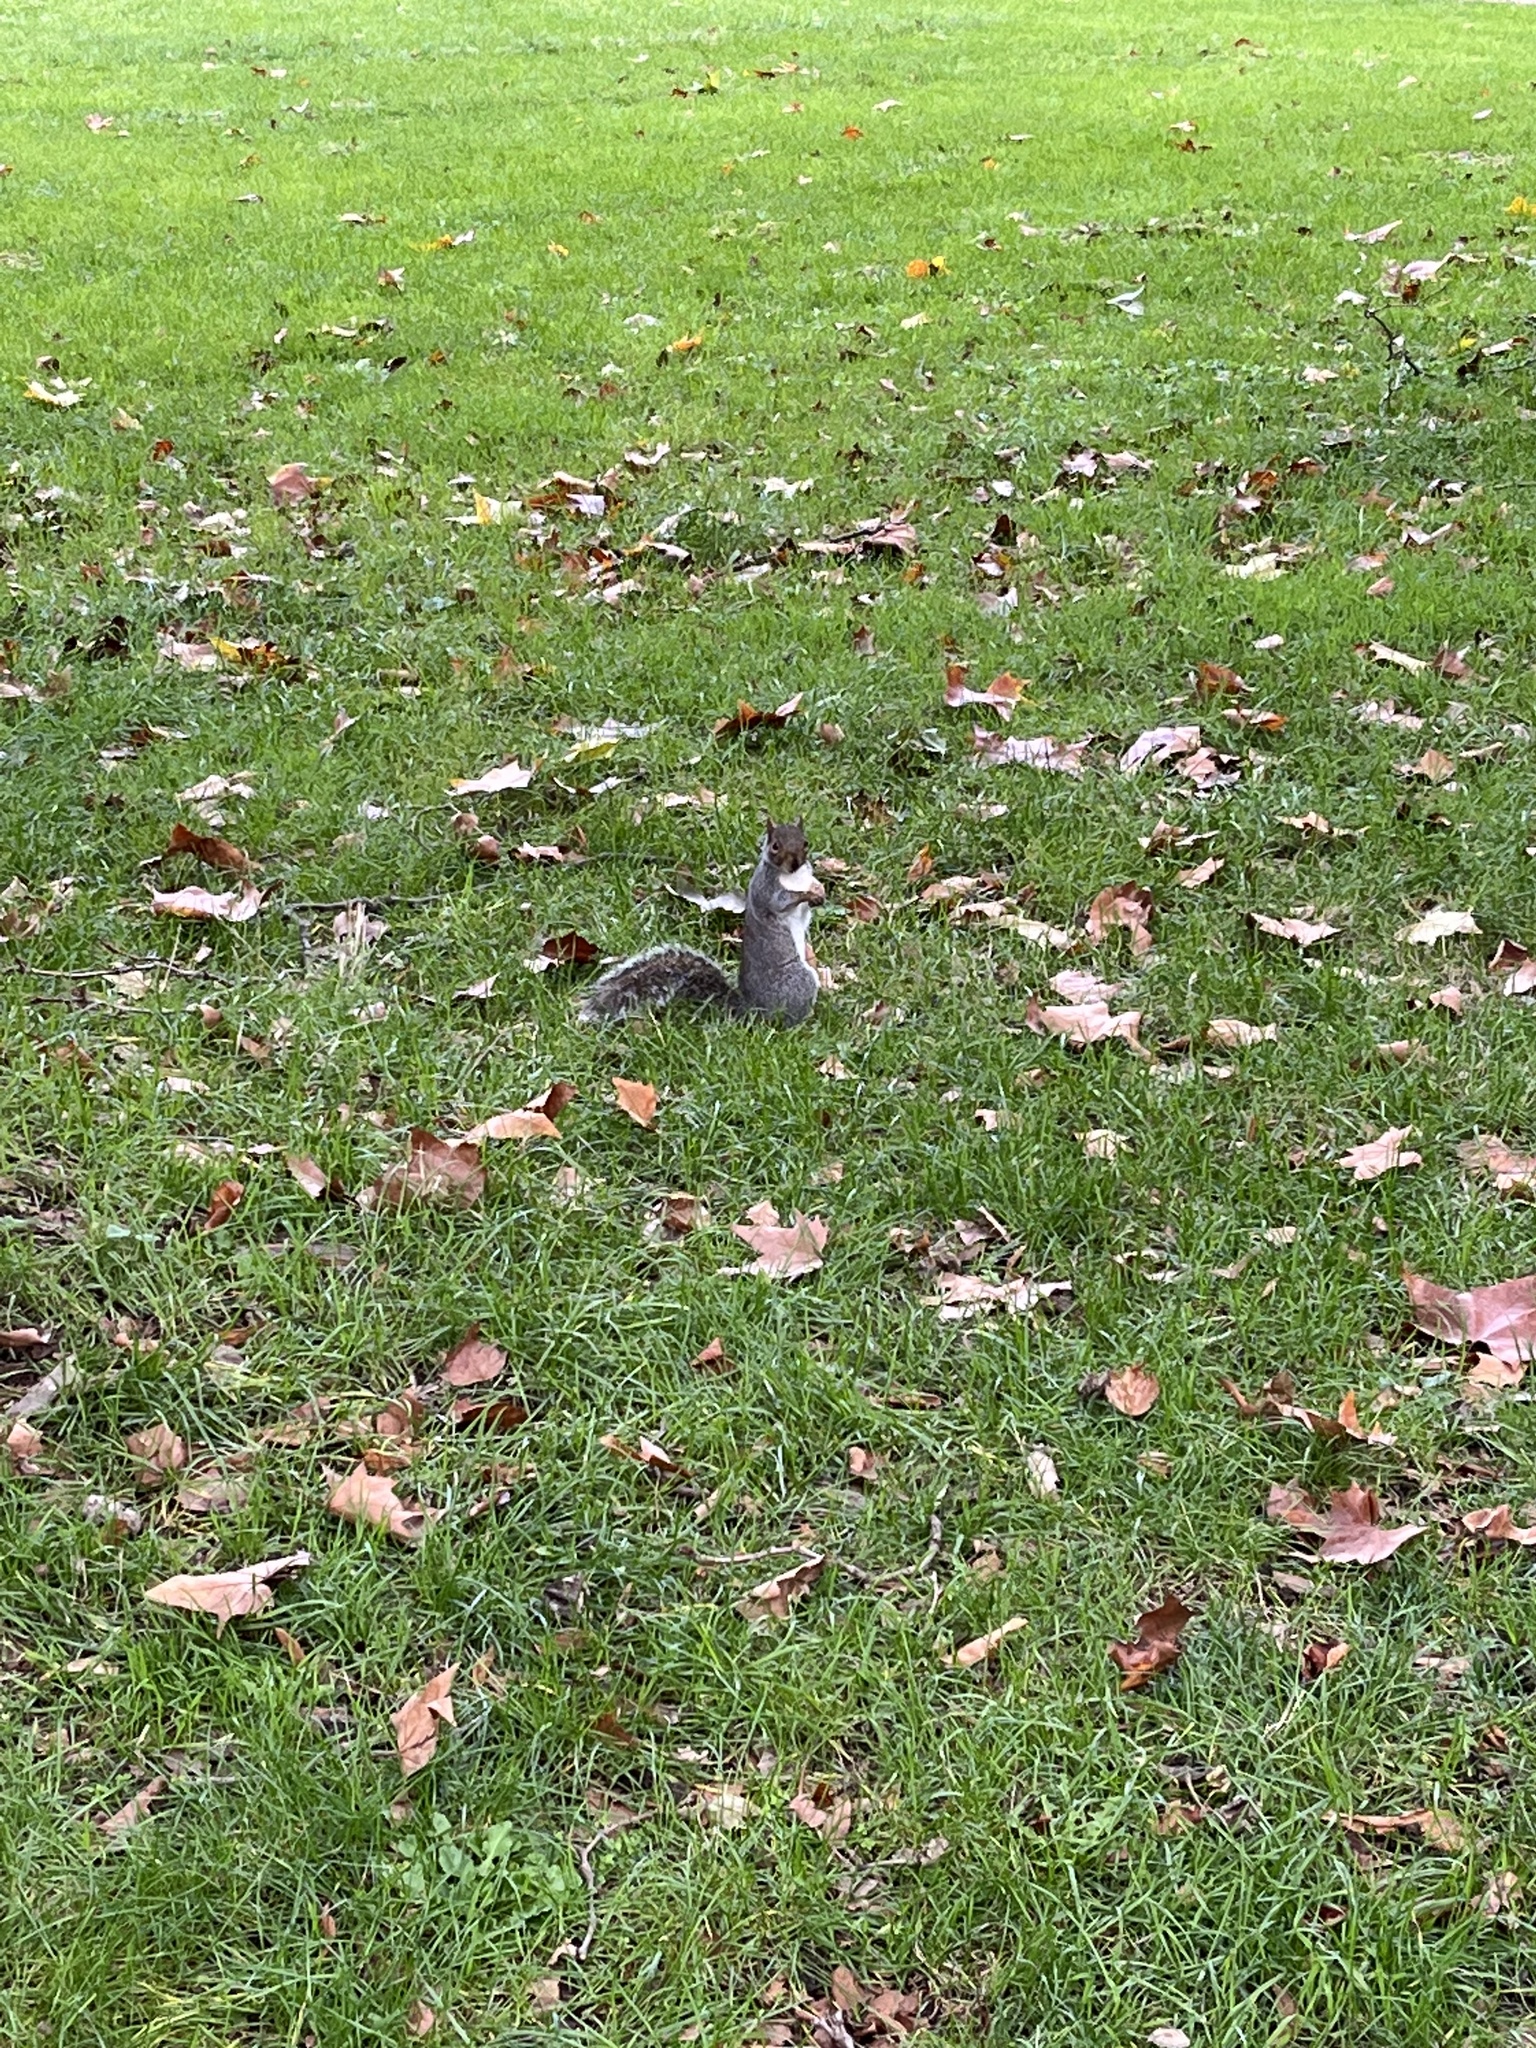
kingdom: Animalia
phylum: Chordata
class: Mammalia
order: Rodentia
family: Sciuridae
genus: Sciurus
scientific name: Sciurus carolinensis
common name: Eastern gray squirrel
